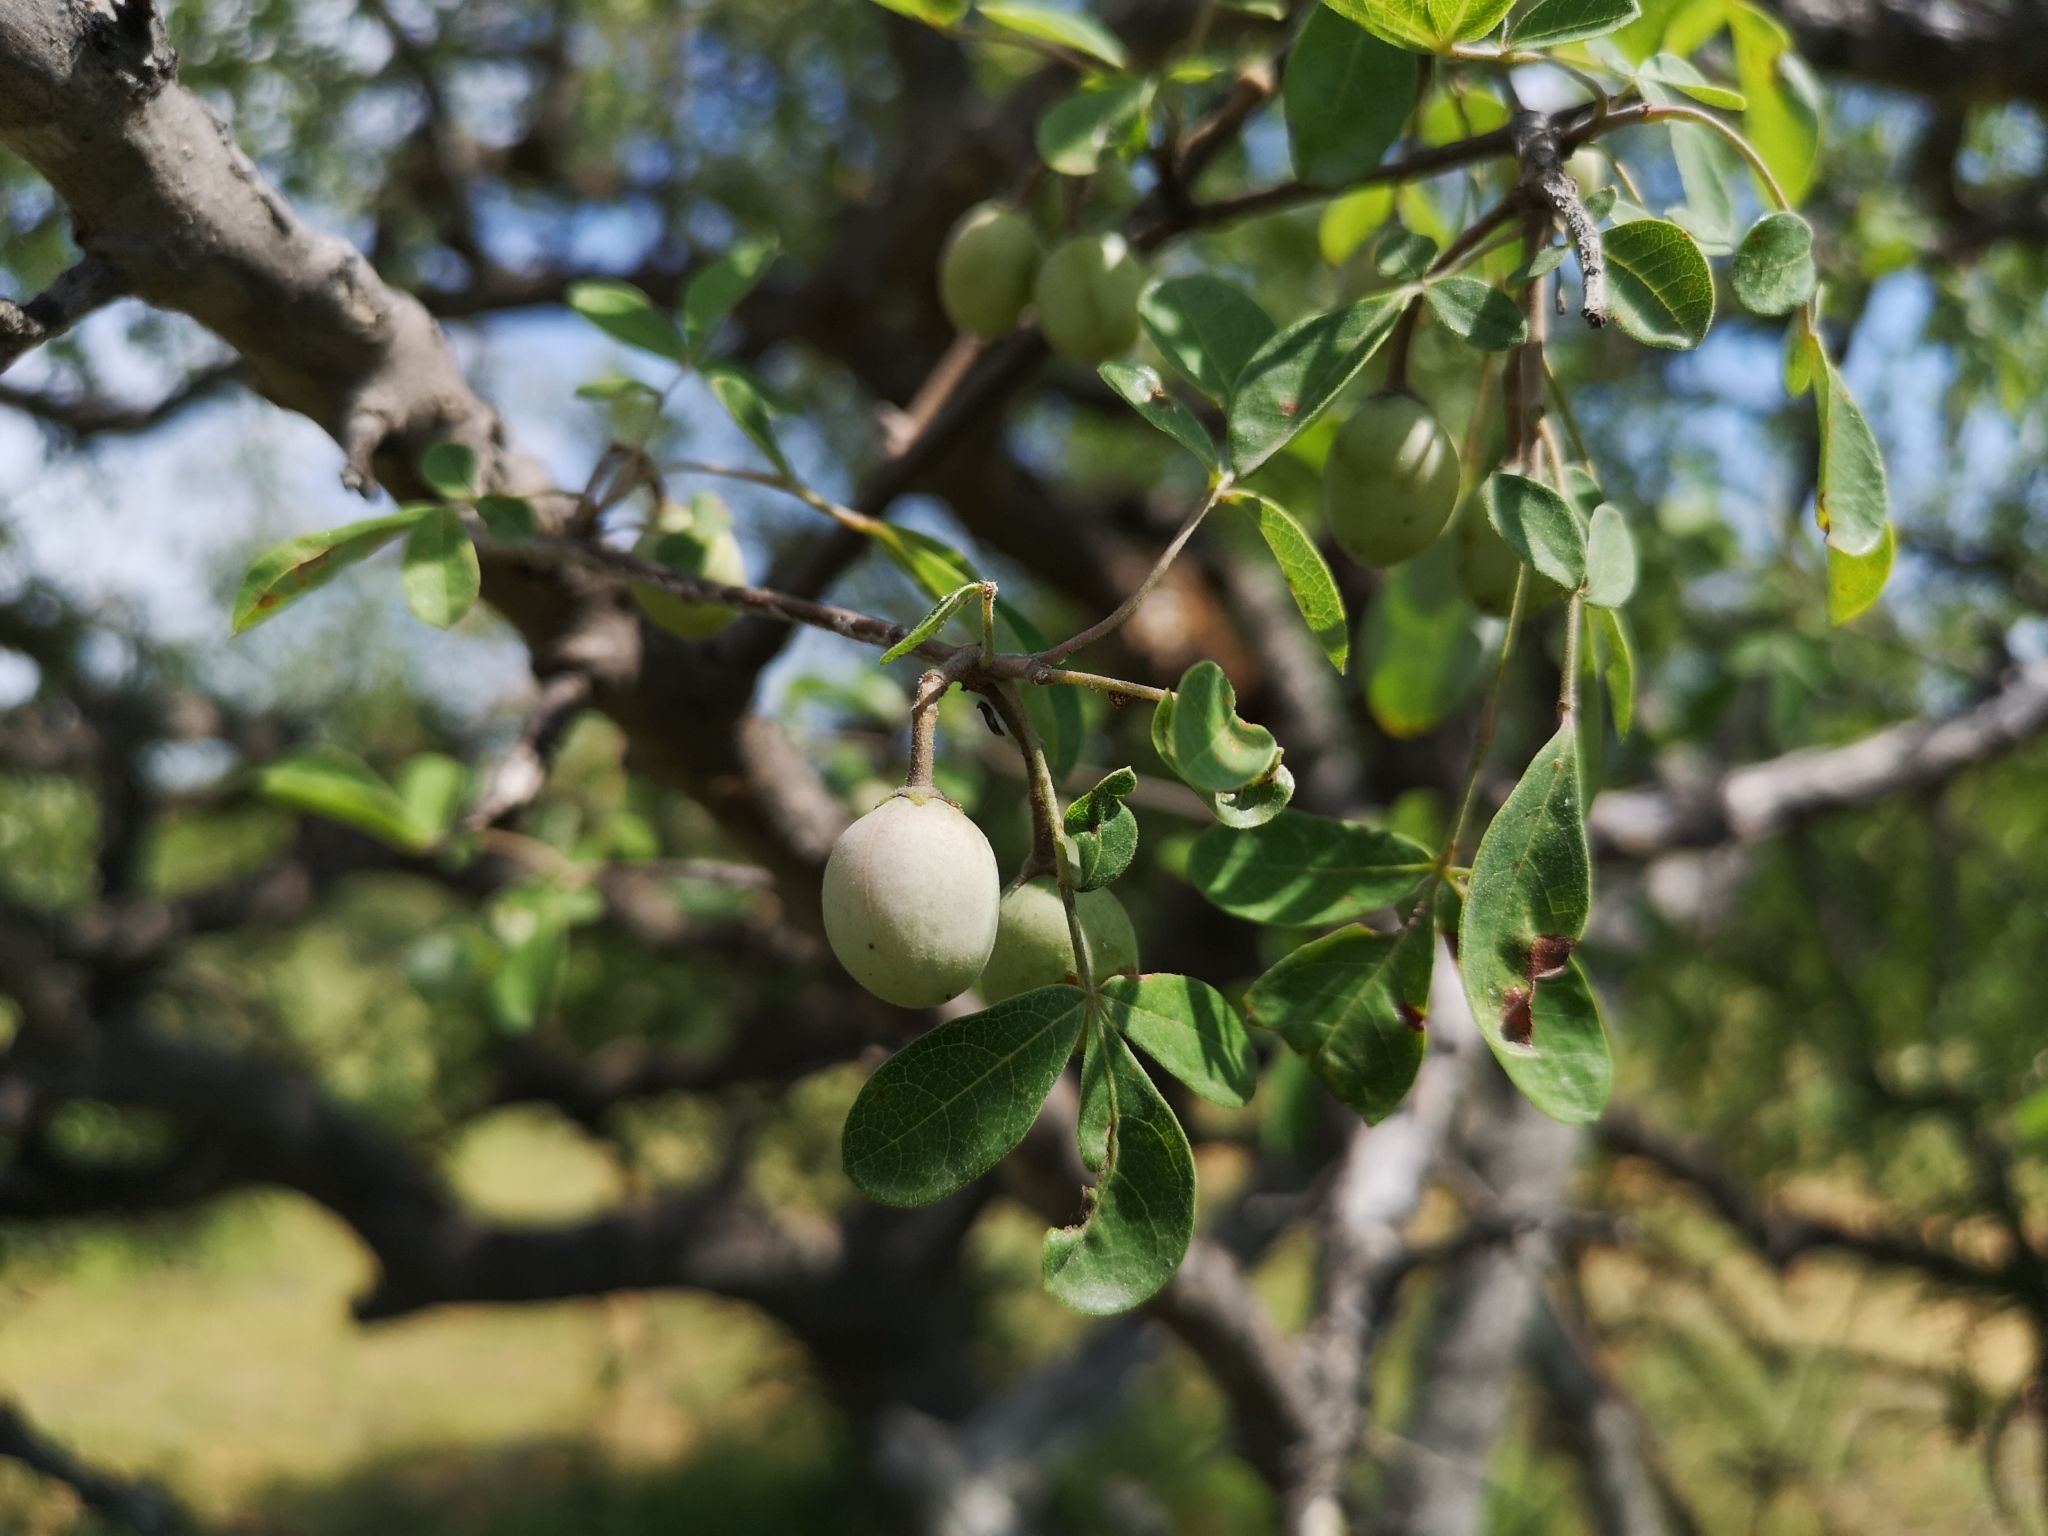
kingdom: Plantae
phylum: Tracheophyta
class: Magnoliopsida
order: Sapindales
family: Burseraceae
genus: Commiphora
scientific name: Commiphora mollis
